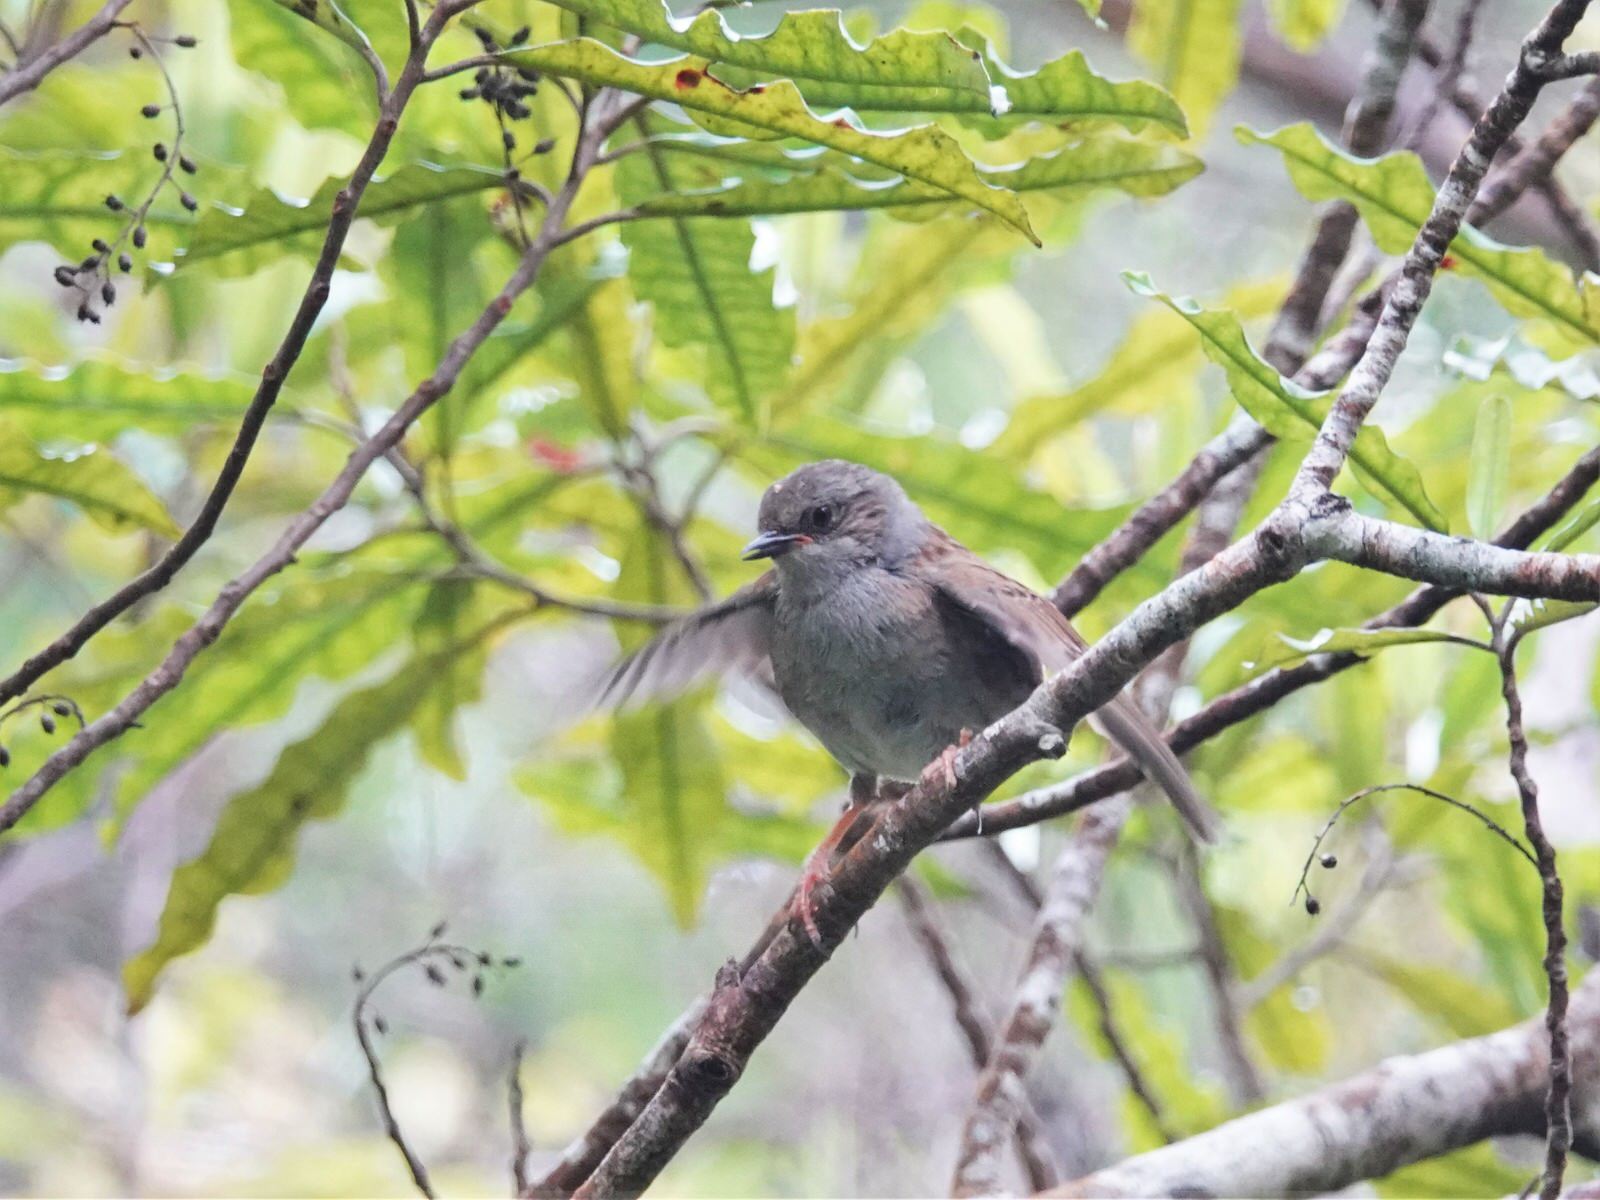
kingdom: Animalia
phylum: Chordata
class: Aves
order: Passeriformes
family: Prunellidae
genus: Prunella
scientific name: Prunella modularis
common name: Dunnock
